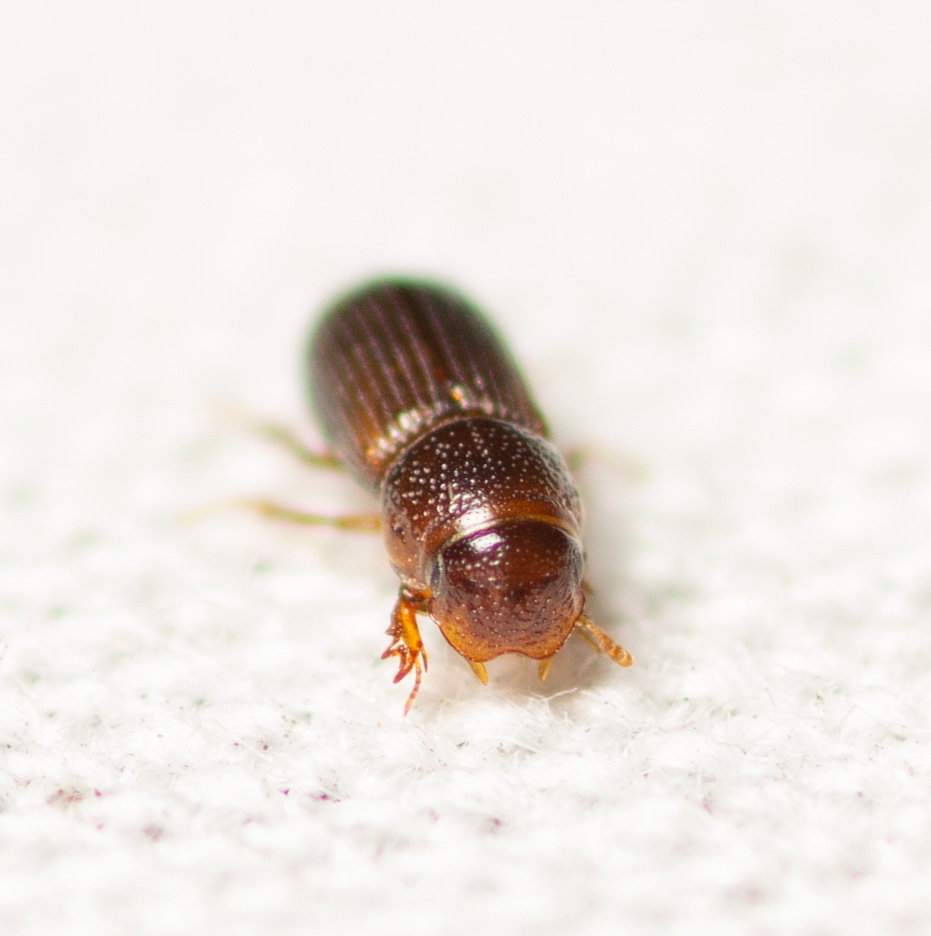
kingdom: Animalia
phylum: Arthropoda
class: Insecta
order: Coleoptera
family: Scarabaeidae
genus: Platytomus
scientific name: Platytomus longulus
